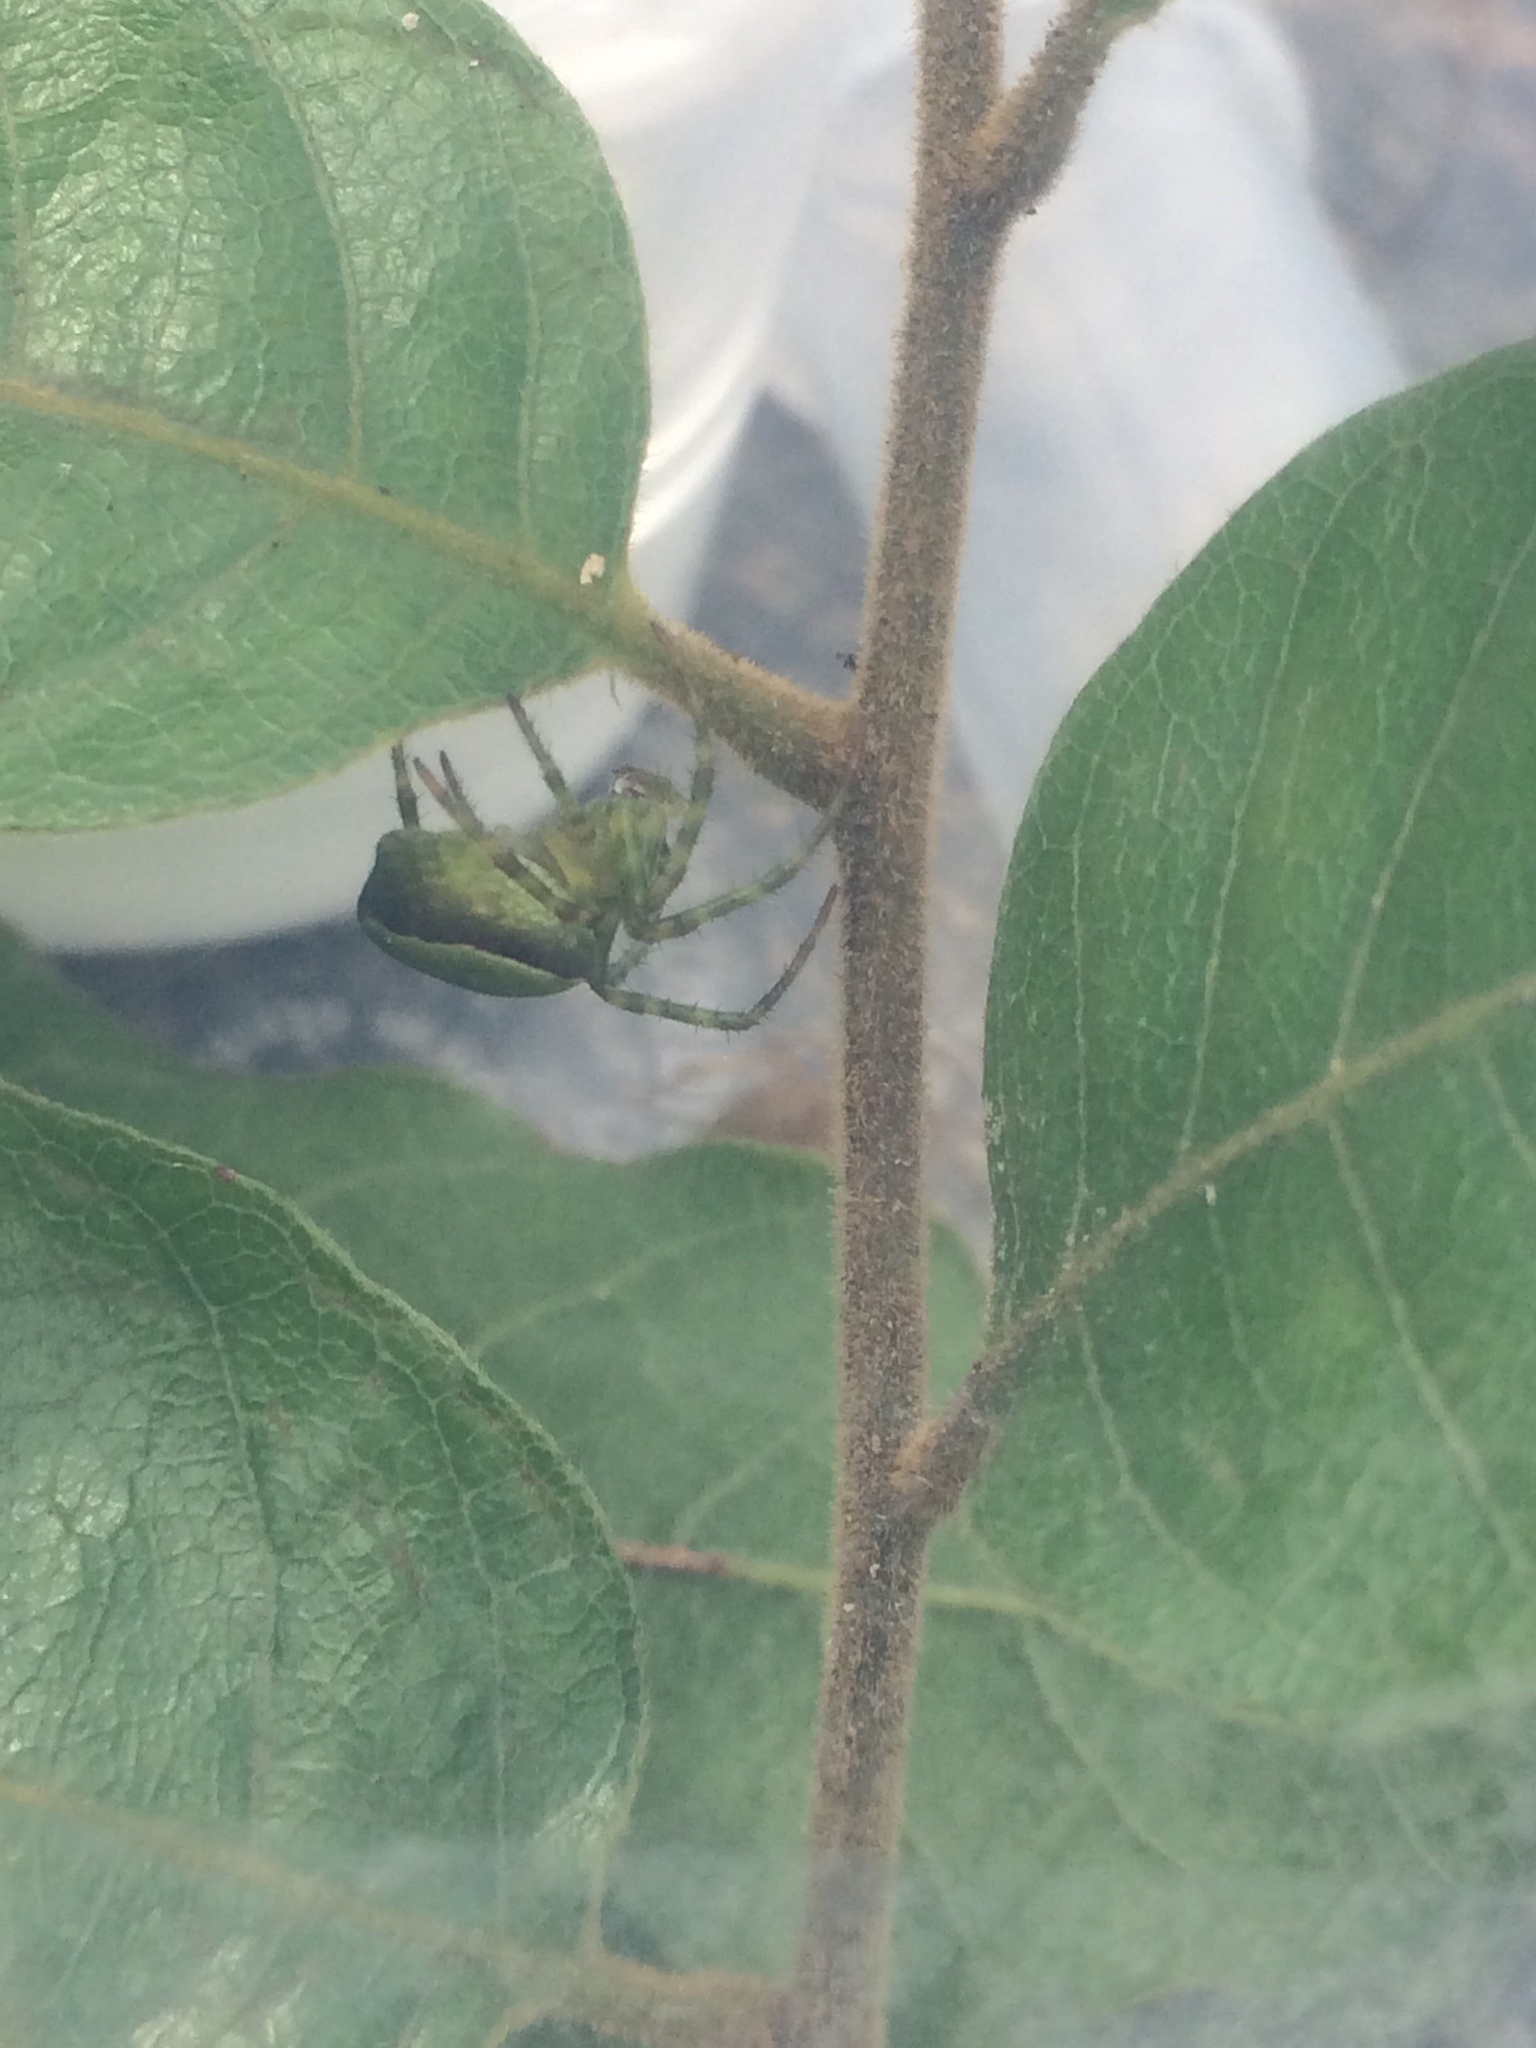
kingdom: Animalia
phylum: Arthropoda
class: Arachnida
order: Araneae
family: Araneidae
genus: Colaranea
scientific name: Colaranea viriditas
